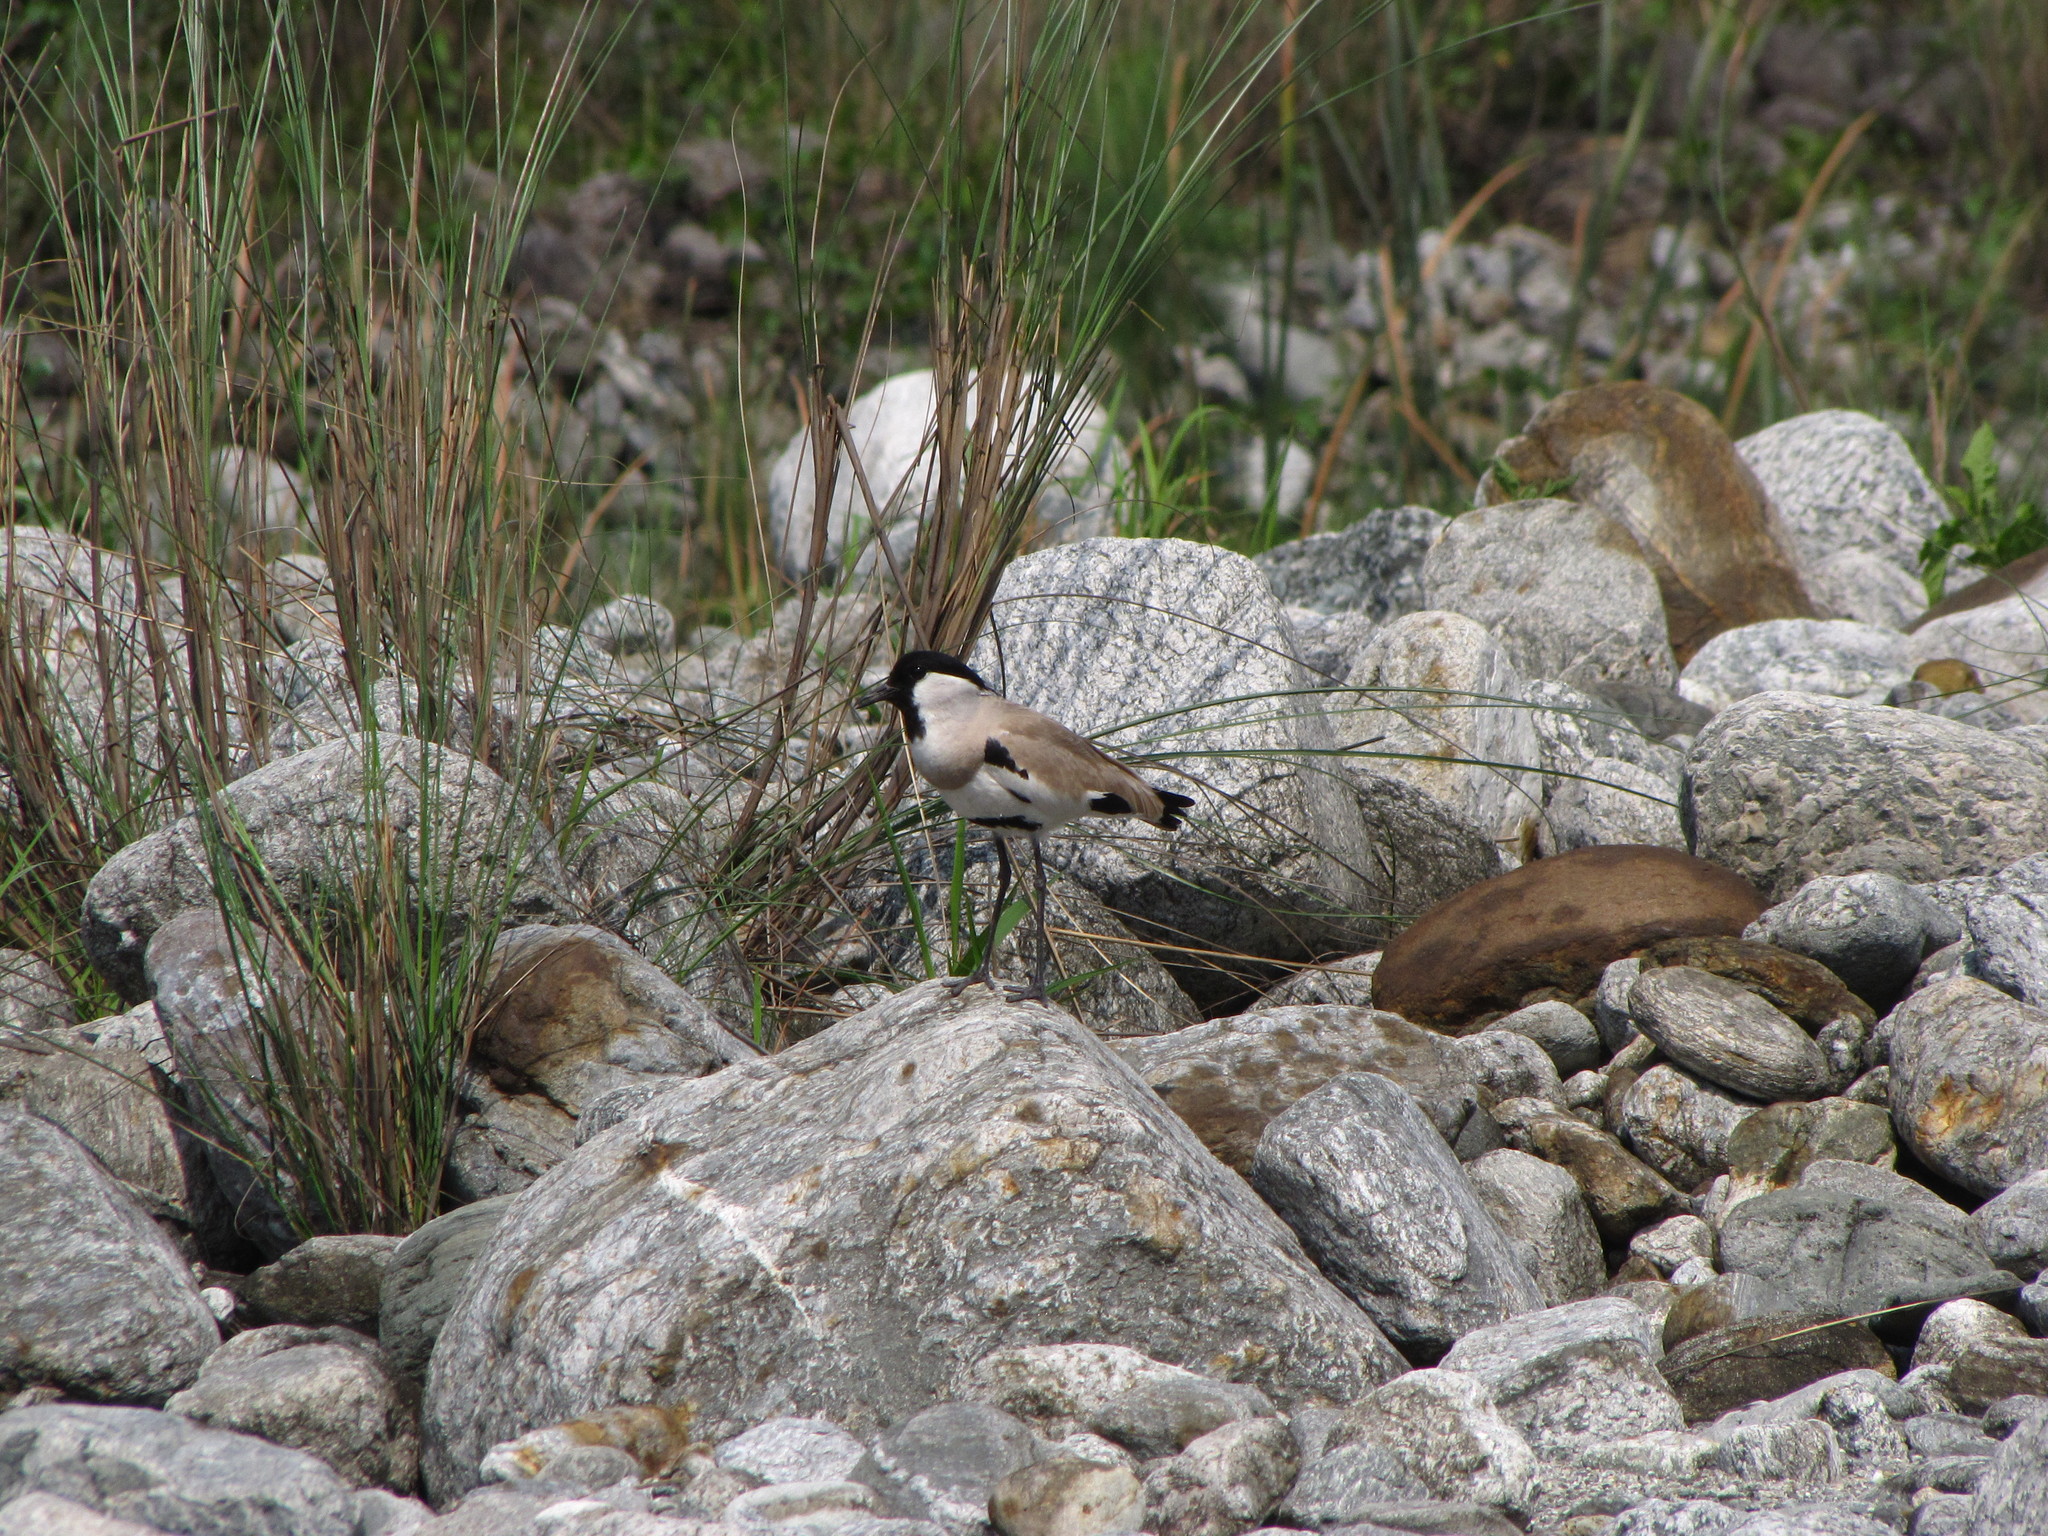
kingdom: Animalia
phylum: Chordata
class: Aves
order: Charadriiformes
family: Charadriidae
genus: Vanellus
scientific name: Vanellus duvaucelii
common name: River lapwing
